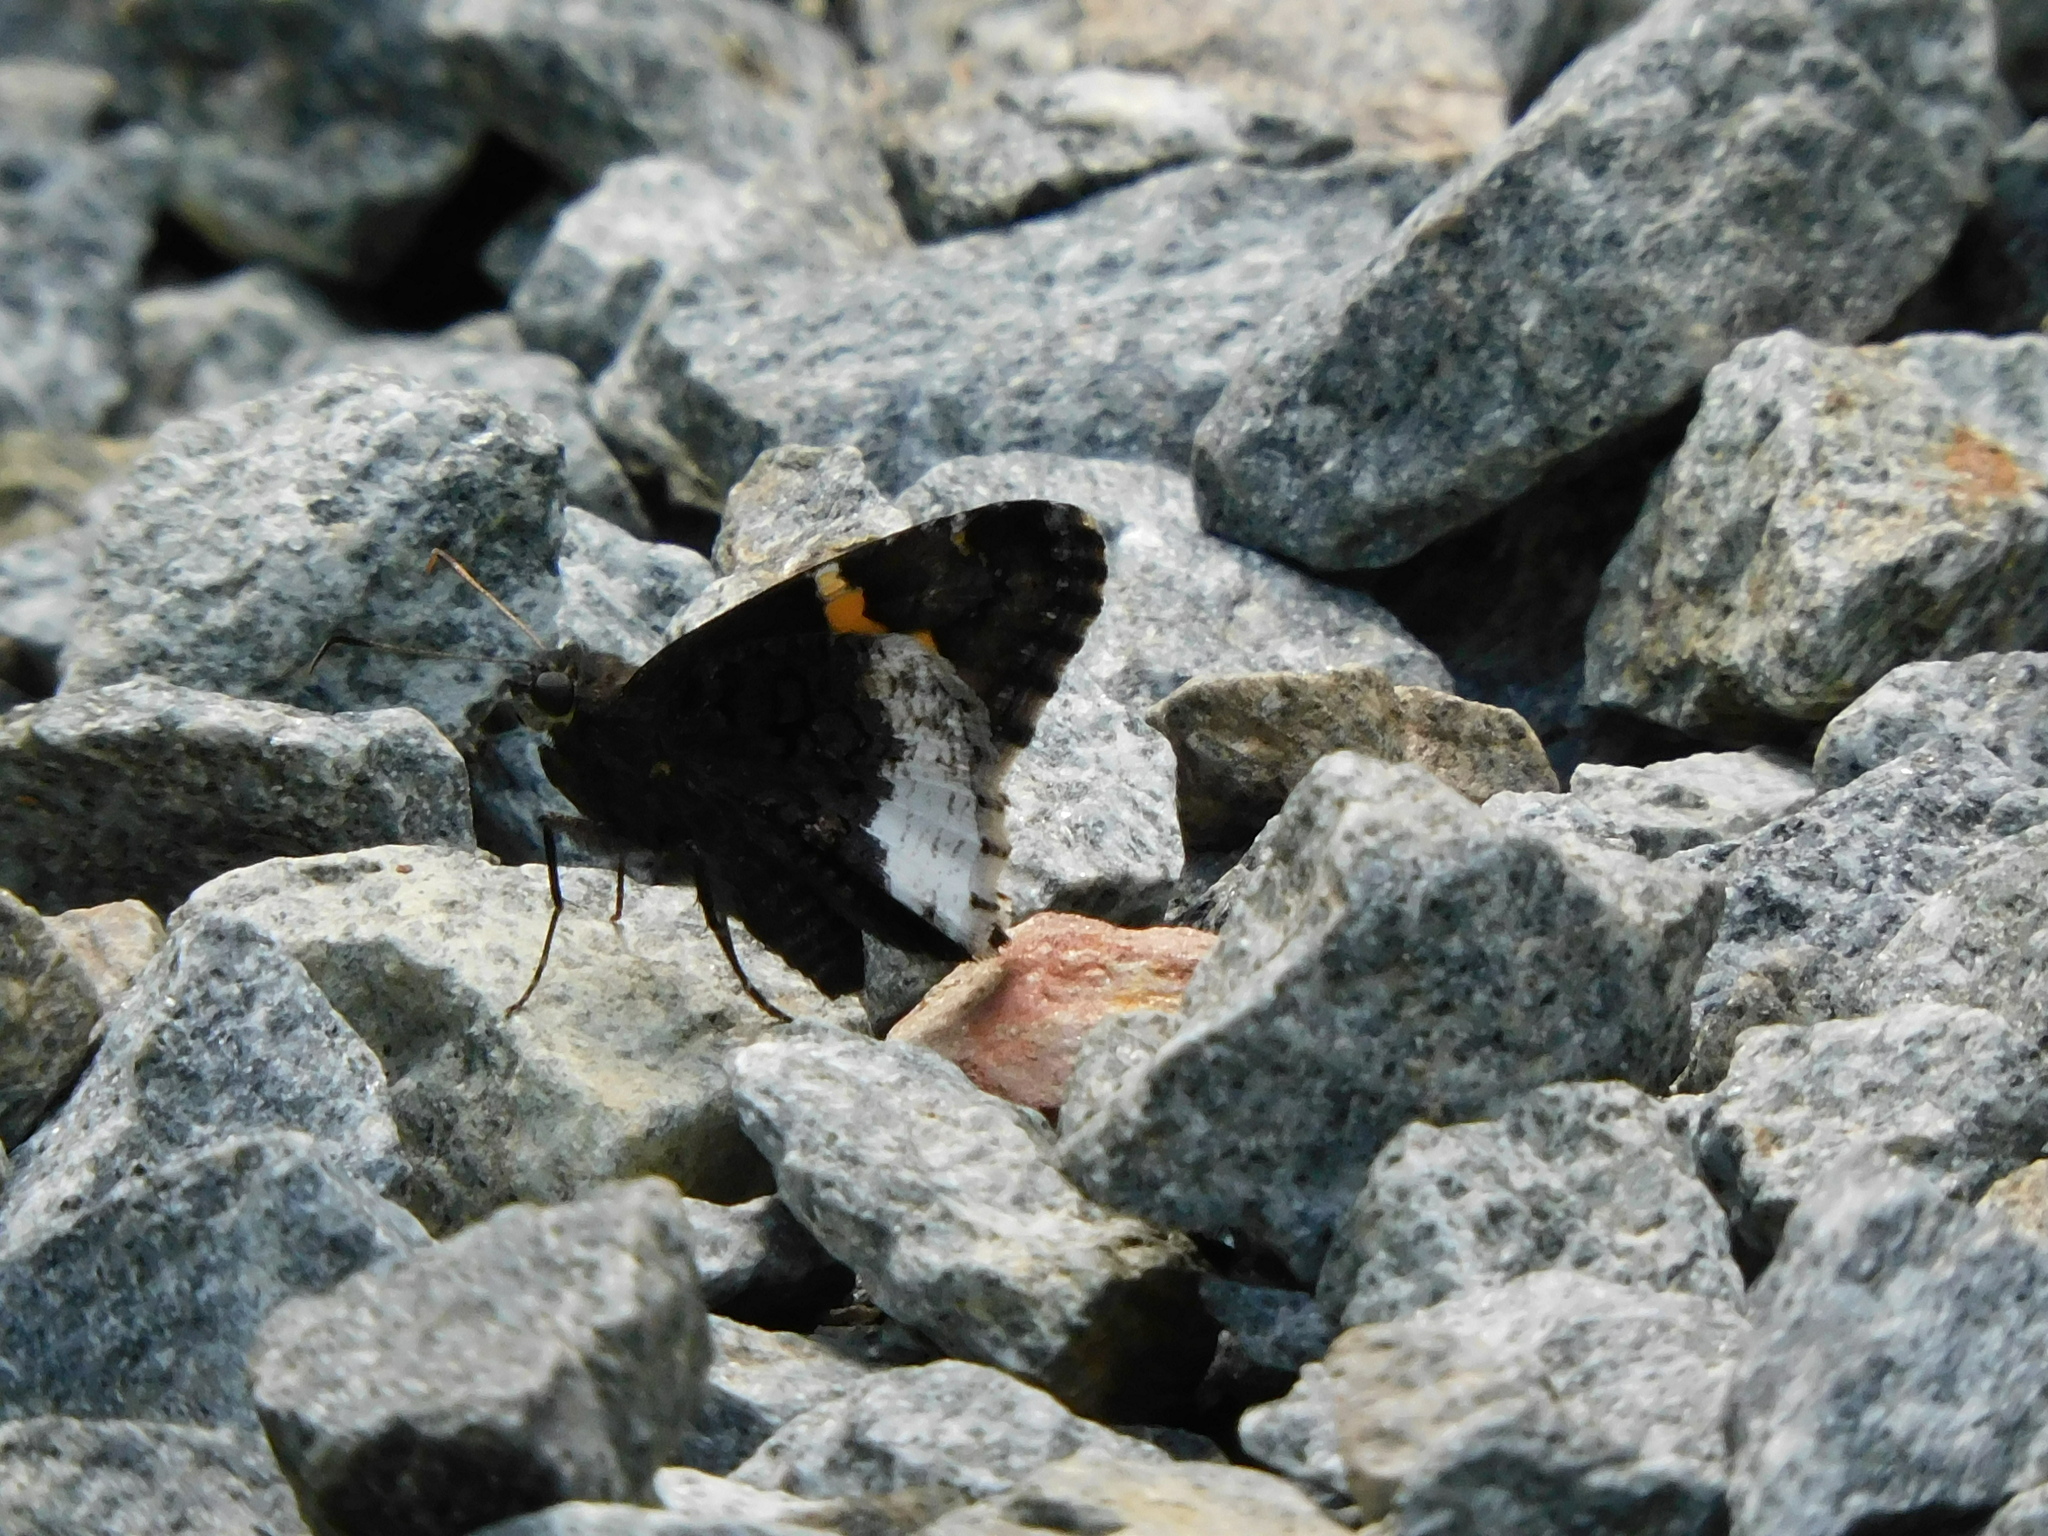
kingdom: Animalia
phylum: Arthropoda
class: Insecta
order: Lepidoptera
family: Hesperiidae
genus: Thorybes
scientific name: Thorybes lyciades
